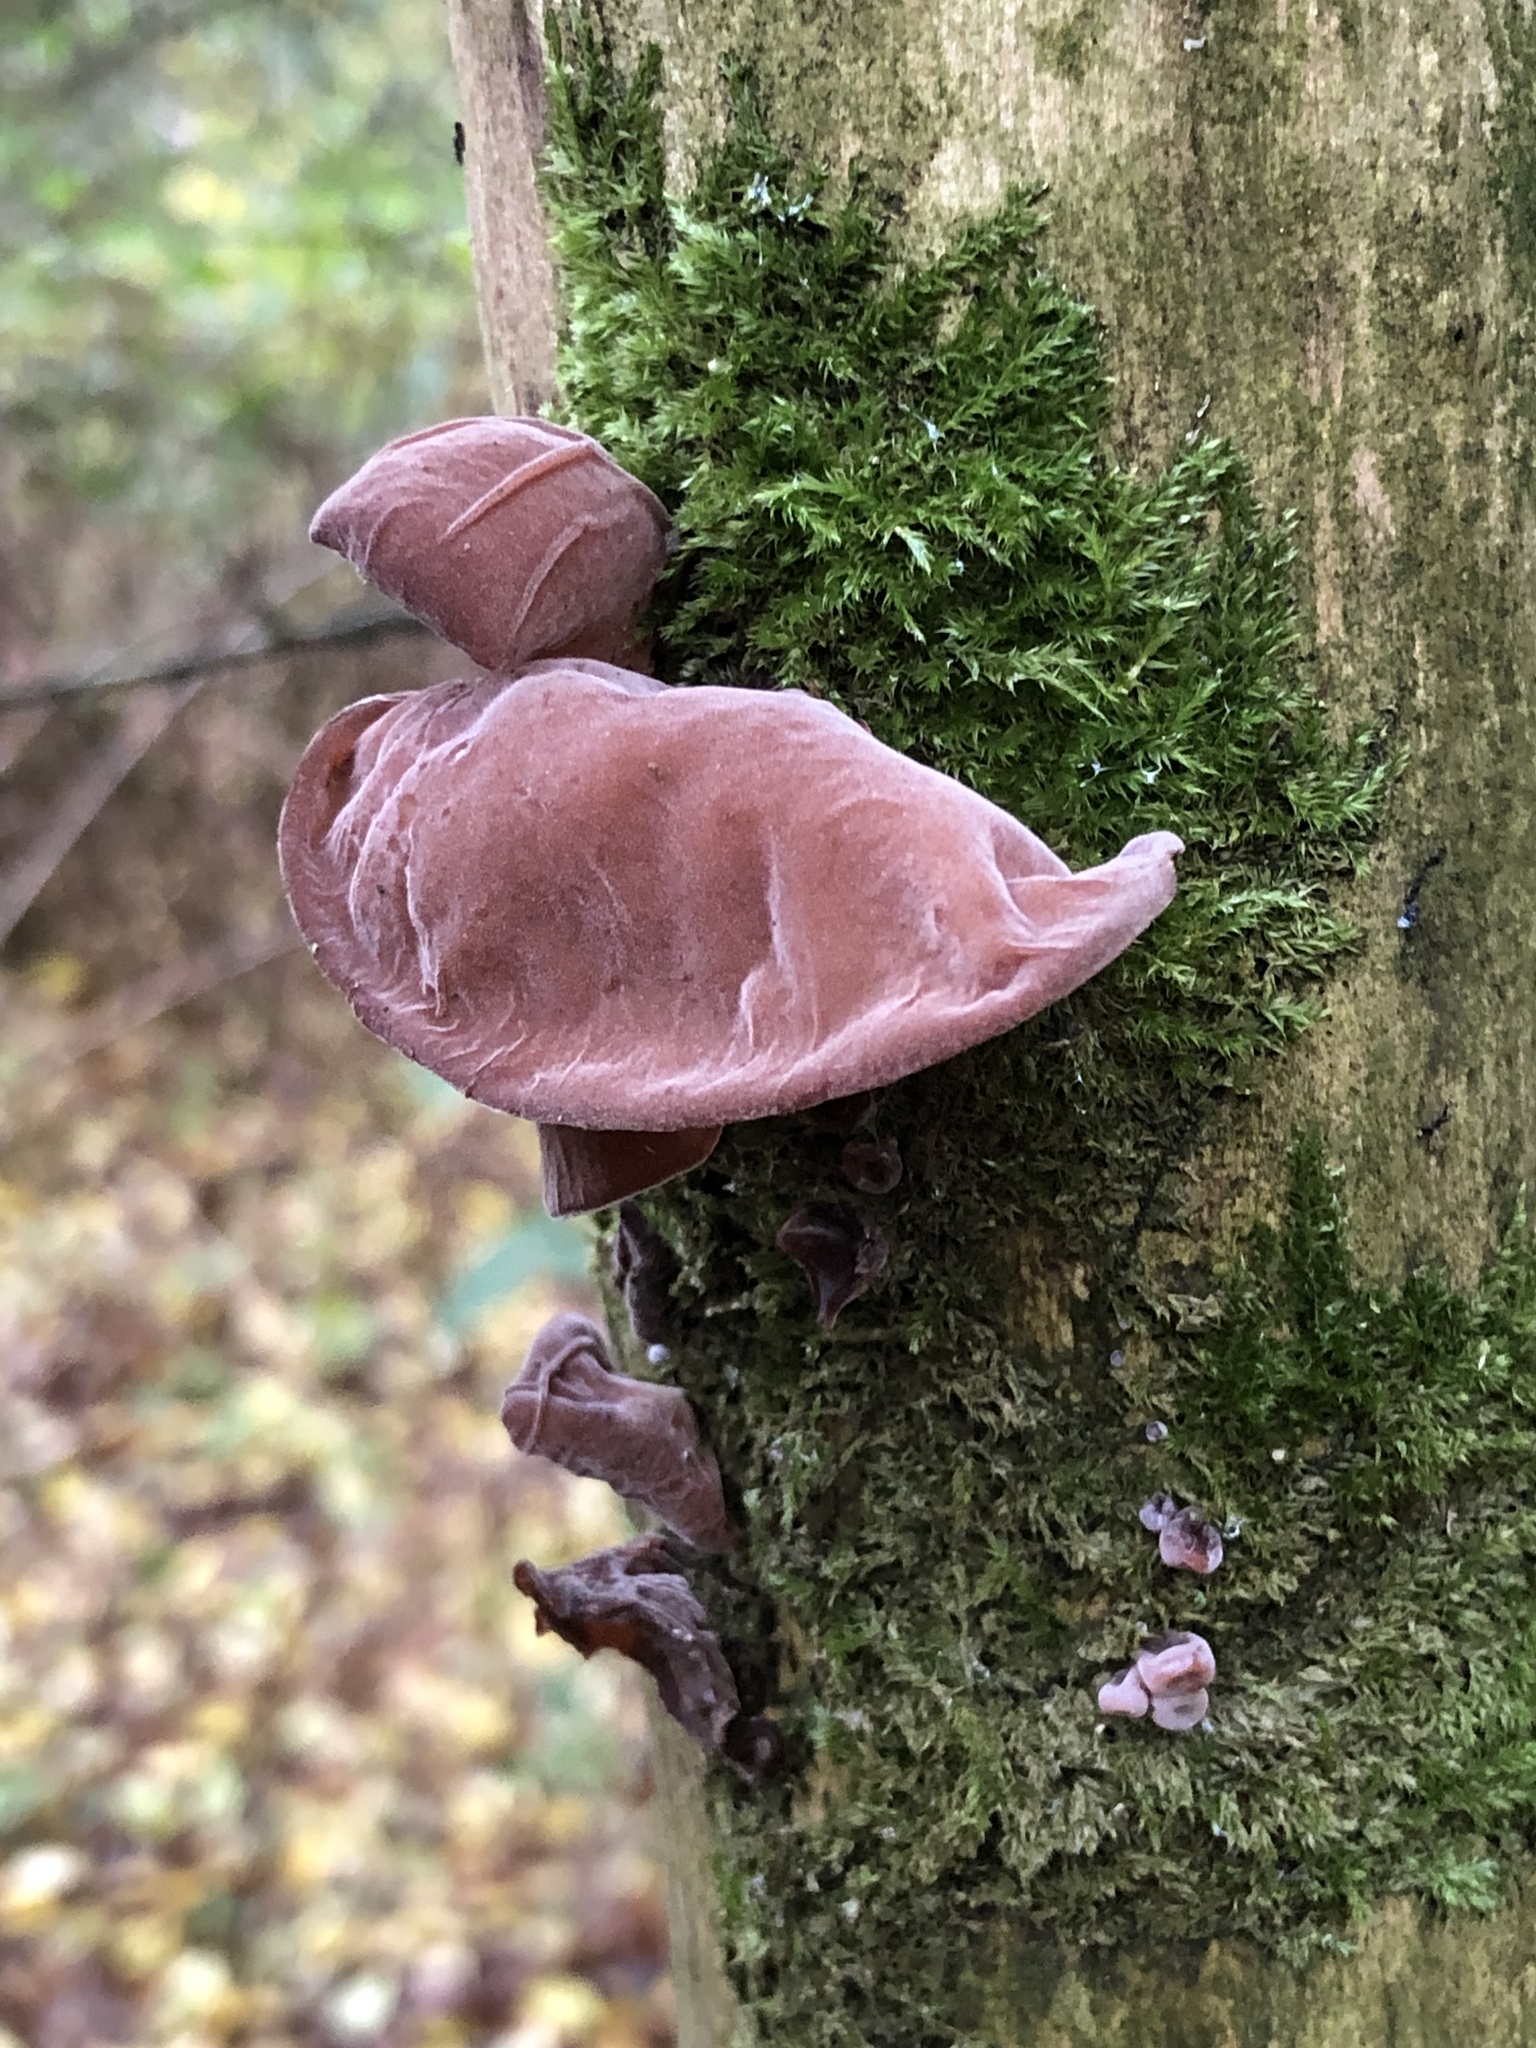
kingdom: Fungi
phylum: Basidiomycota
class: Agaricomycetes
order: Auriculariales
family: Auriculariaceae
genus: Auricularia
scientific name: Auricularia auricula-judae
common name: Jelly ear
